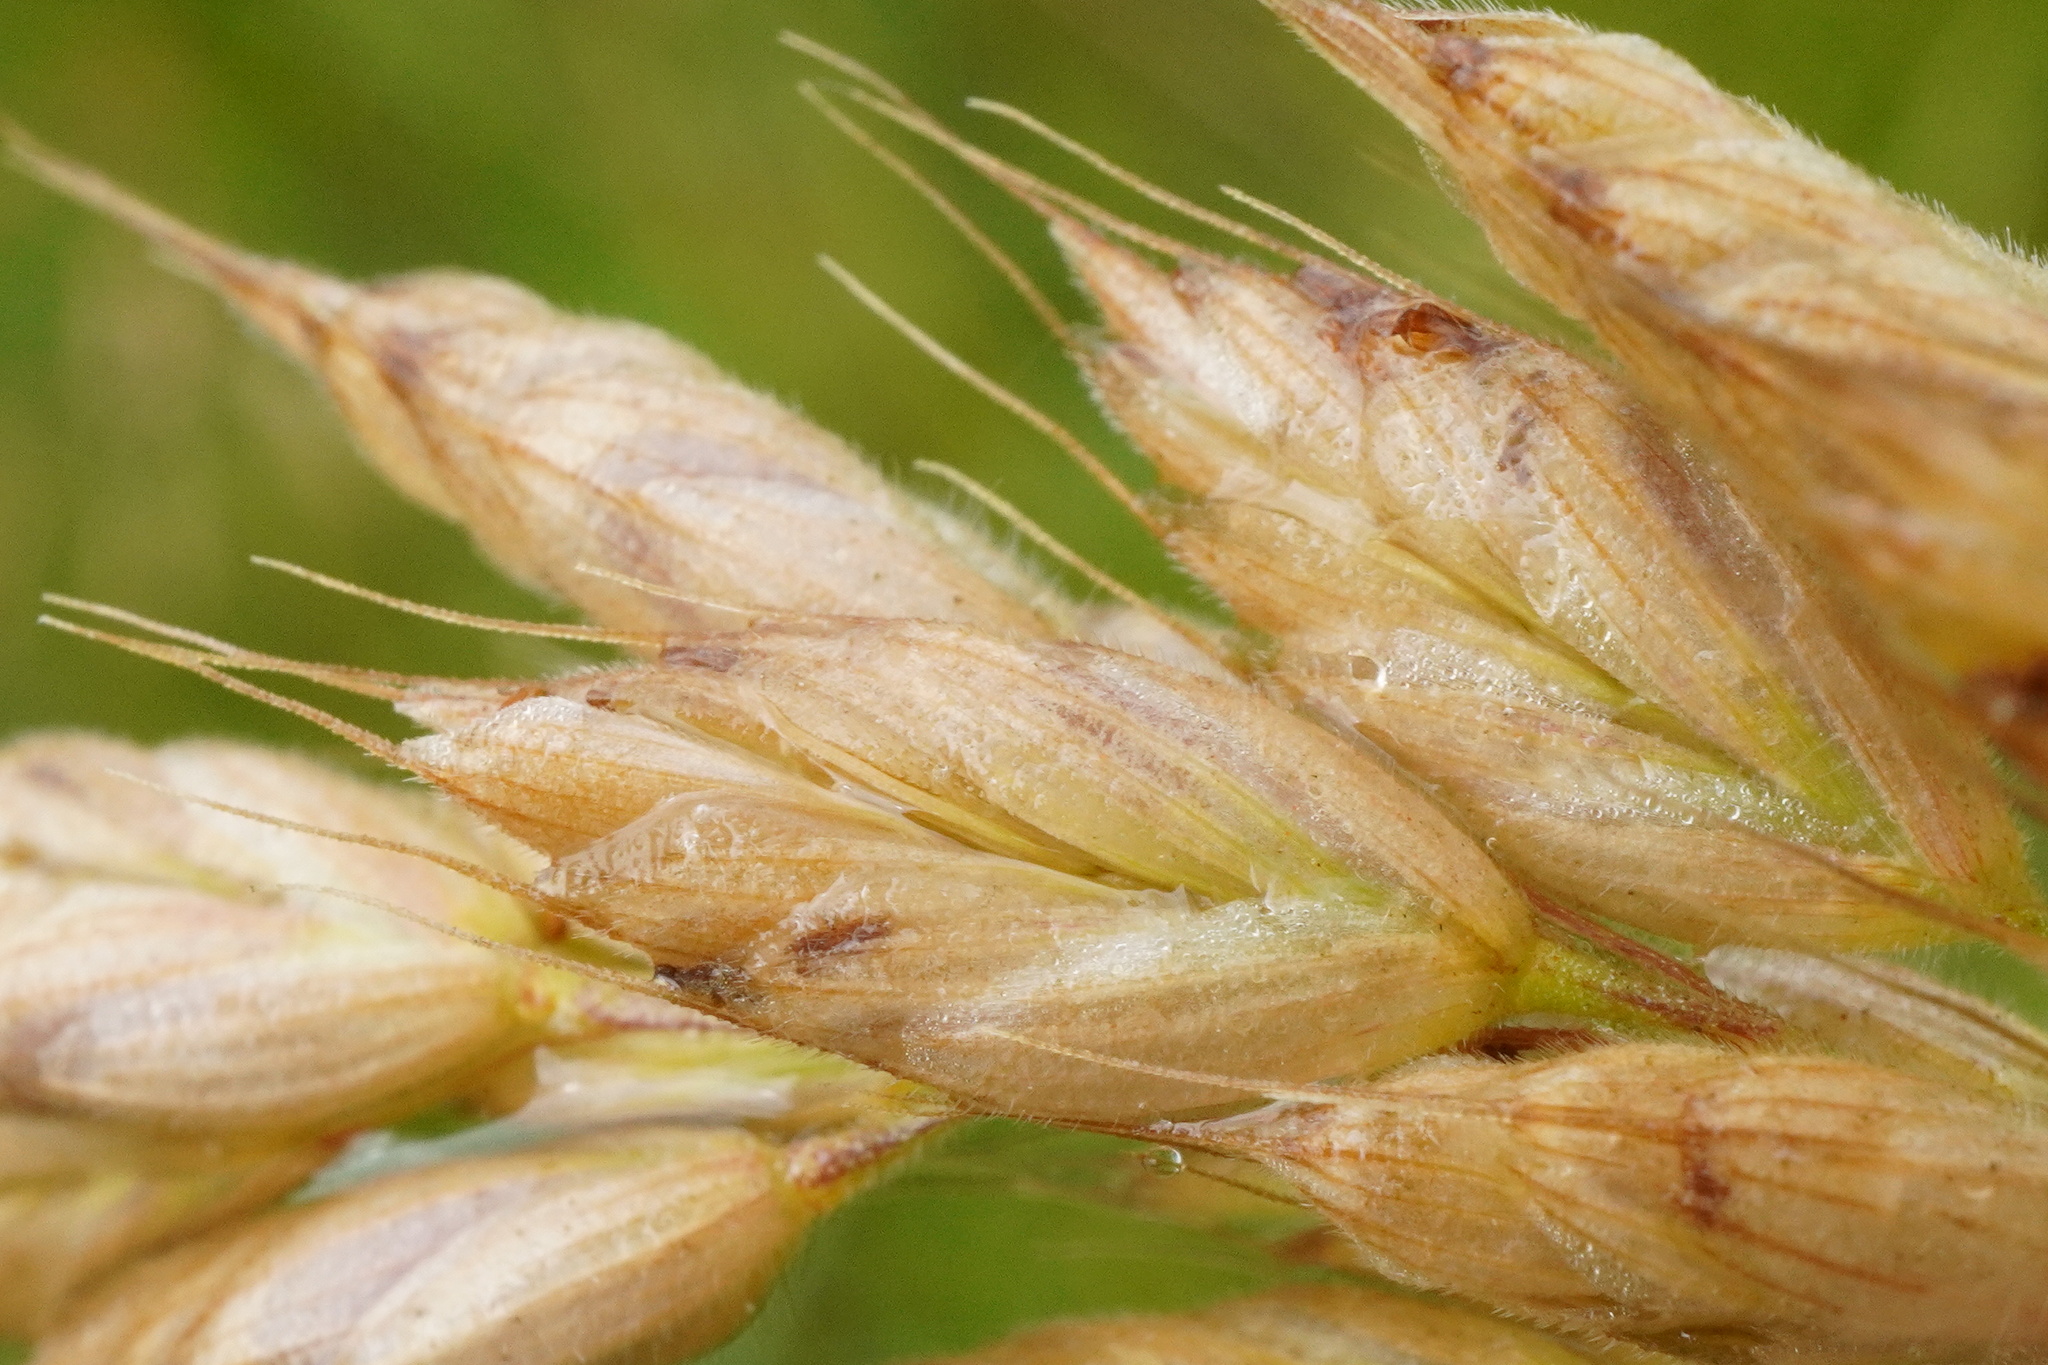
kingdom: Plantae
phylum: Tracheophyta
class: Liliopsida
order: Poales
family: Poaceae
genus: Bromus
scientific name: Bromus hordeaceus
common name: Soft brome
